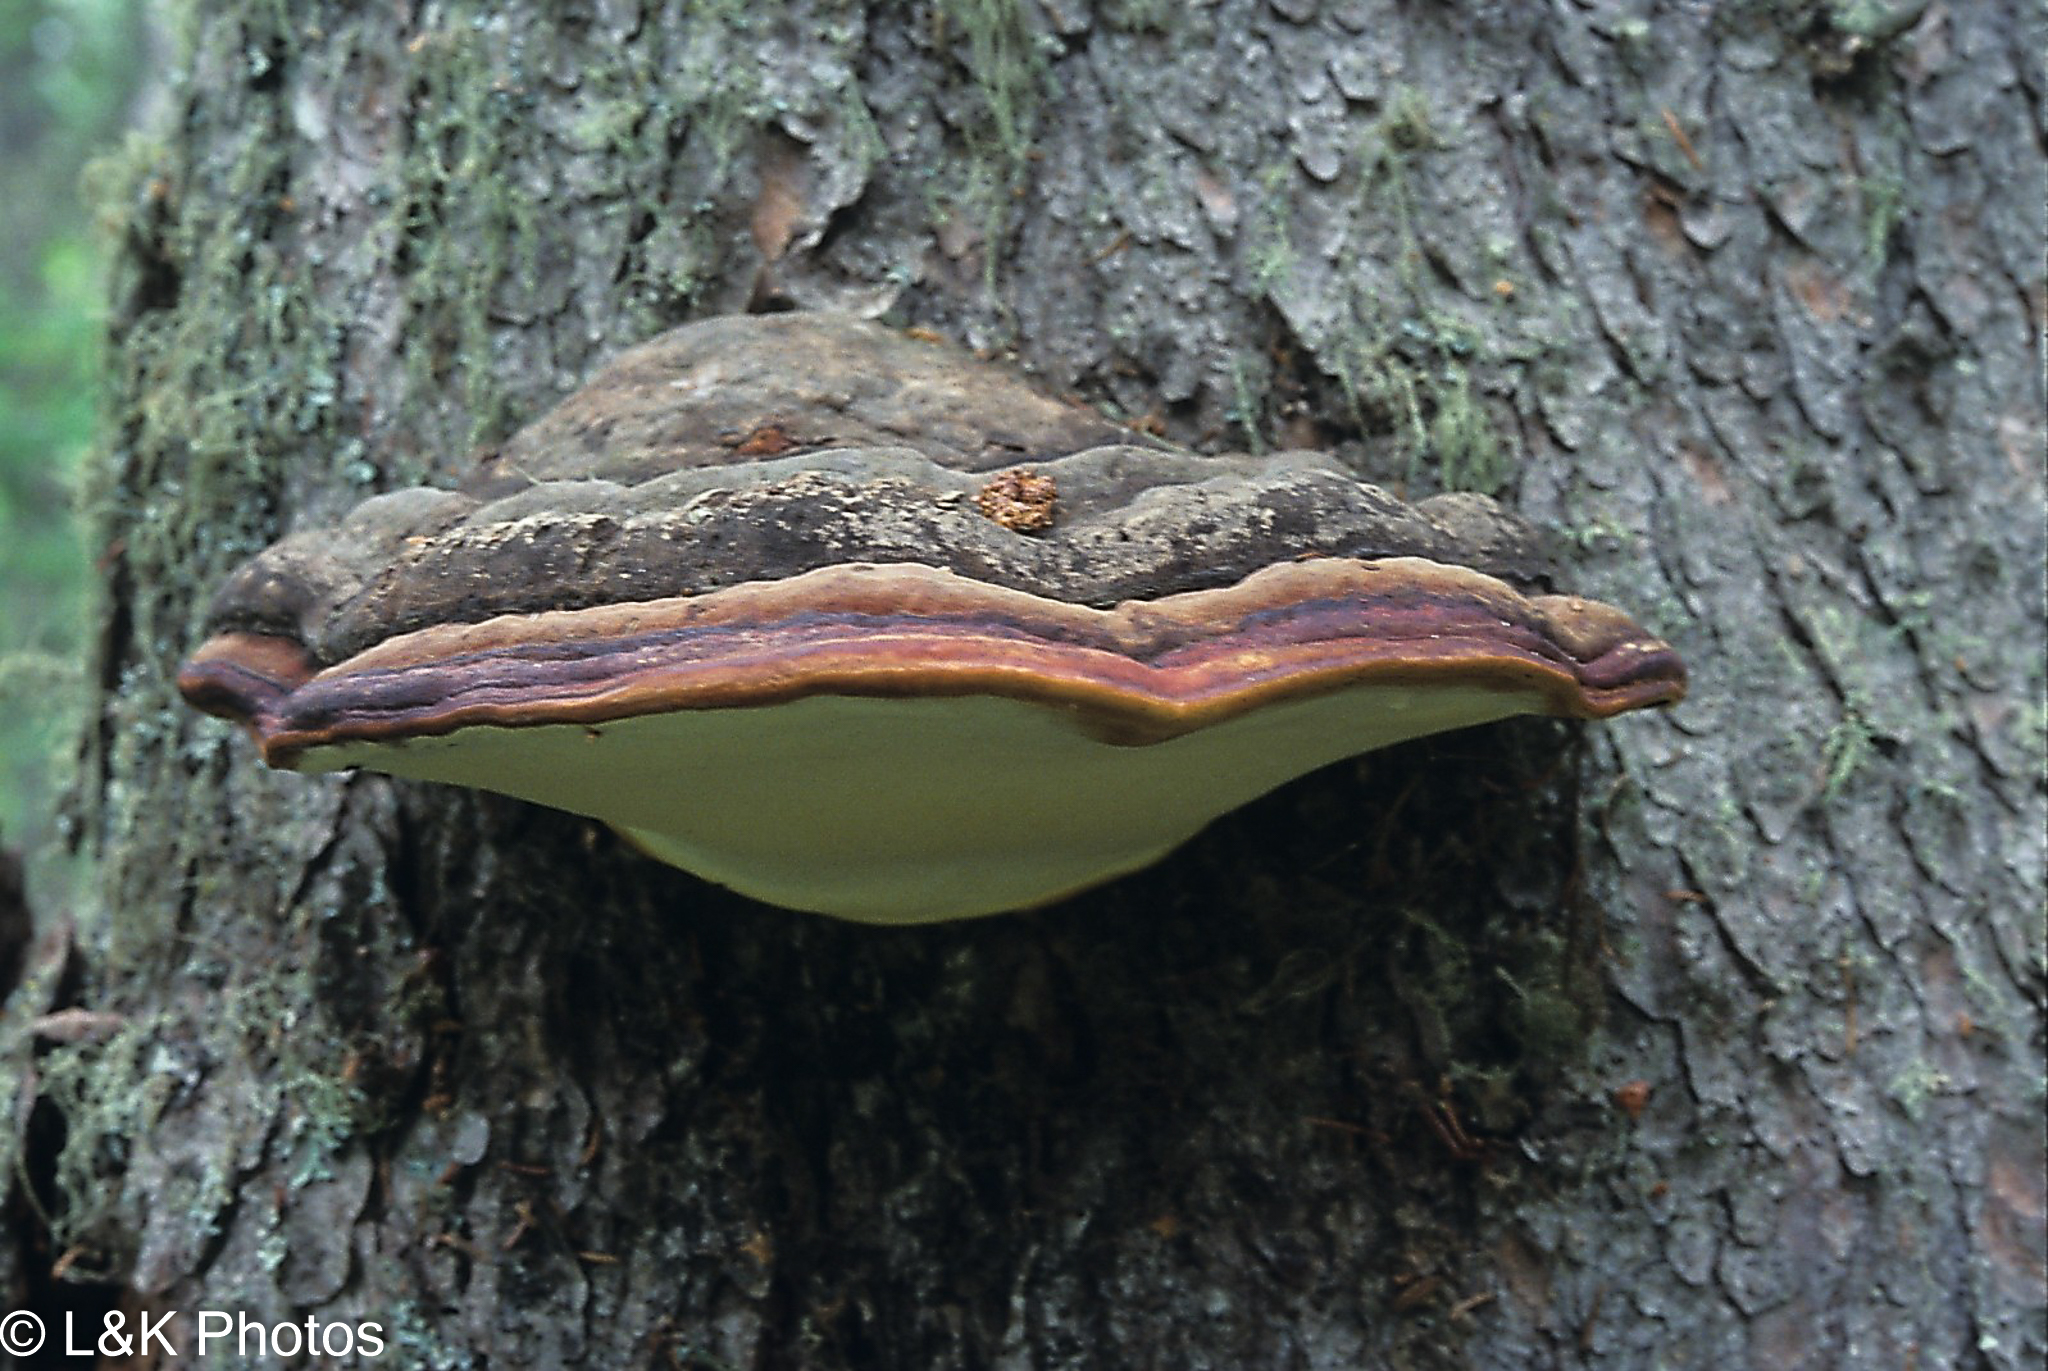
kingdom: Fungi
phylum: Basidiomycota
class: Agaricomycetes
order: Polyporales
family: Fomitopsidaceae
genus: Fomitopsis
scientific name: Fomitopsis mounceae
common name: Northern red belt
